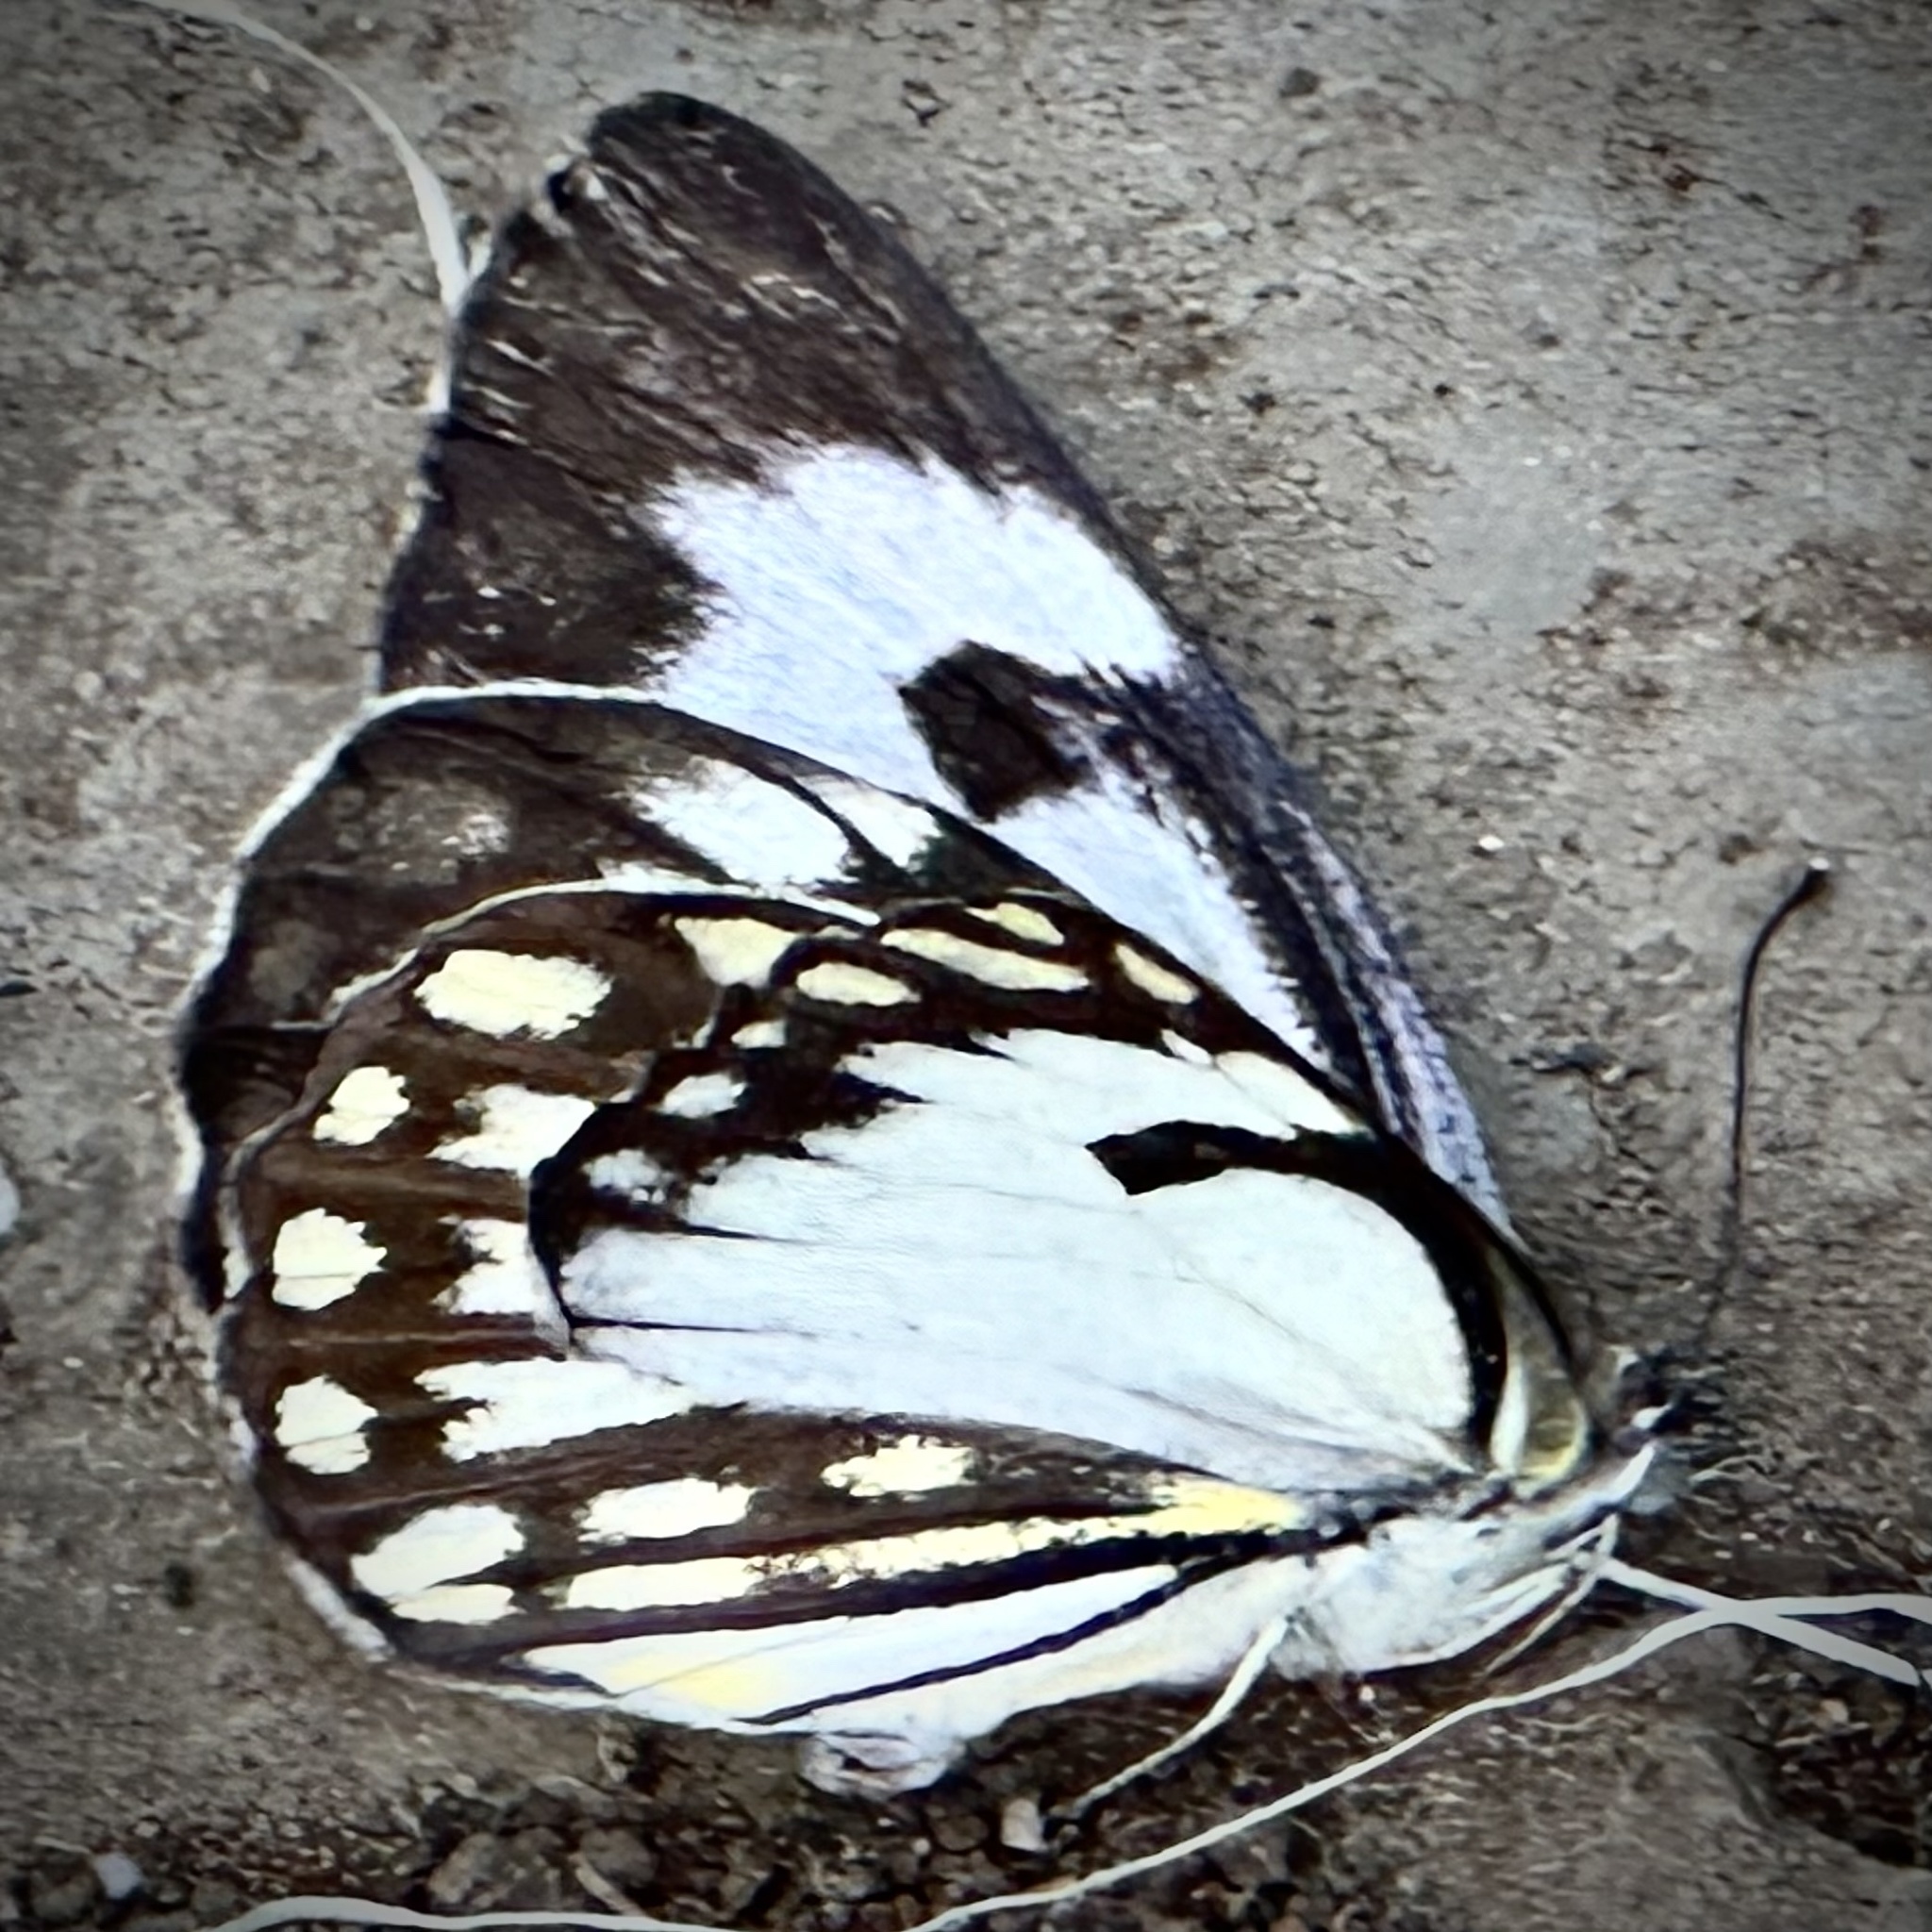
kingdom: Animalia
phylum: Arthropoda
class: Insecta
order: Lepidoptera
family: Pieridae
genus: Belenois
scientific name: Belenois aurota
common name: Brown-veined white
